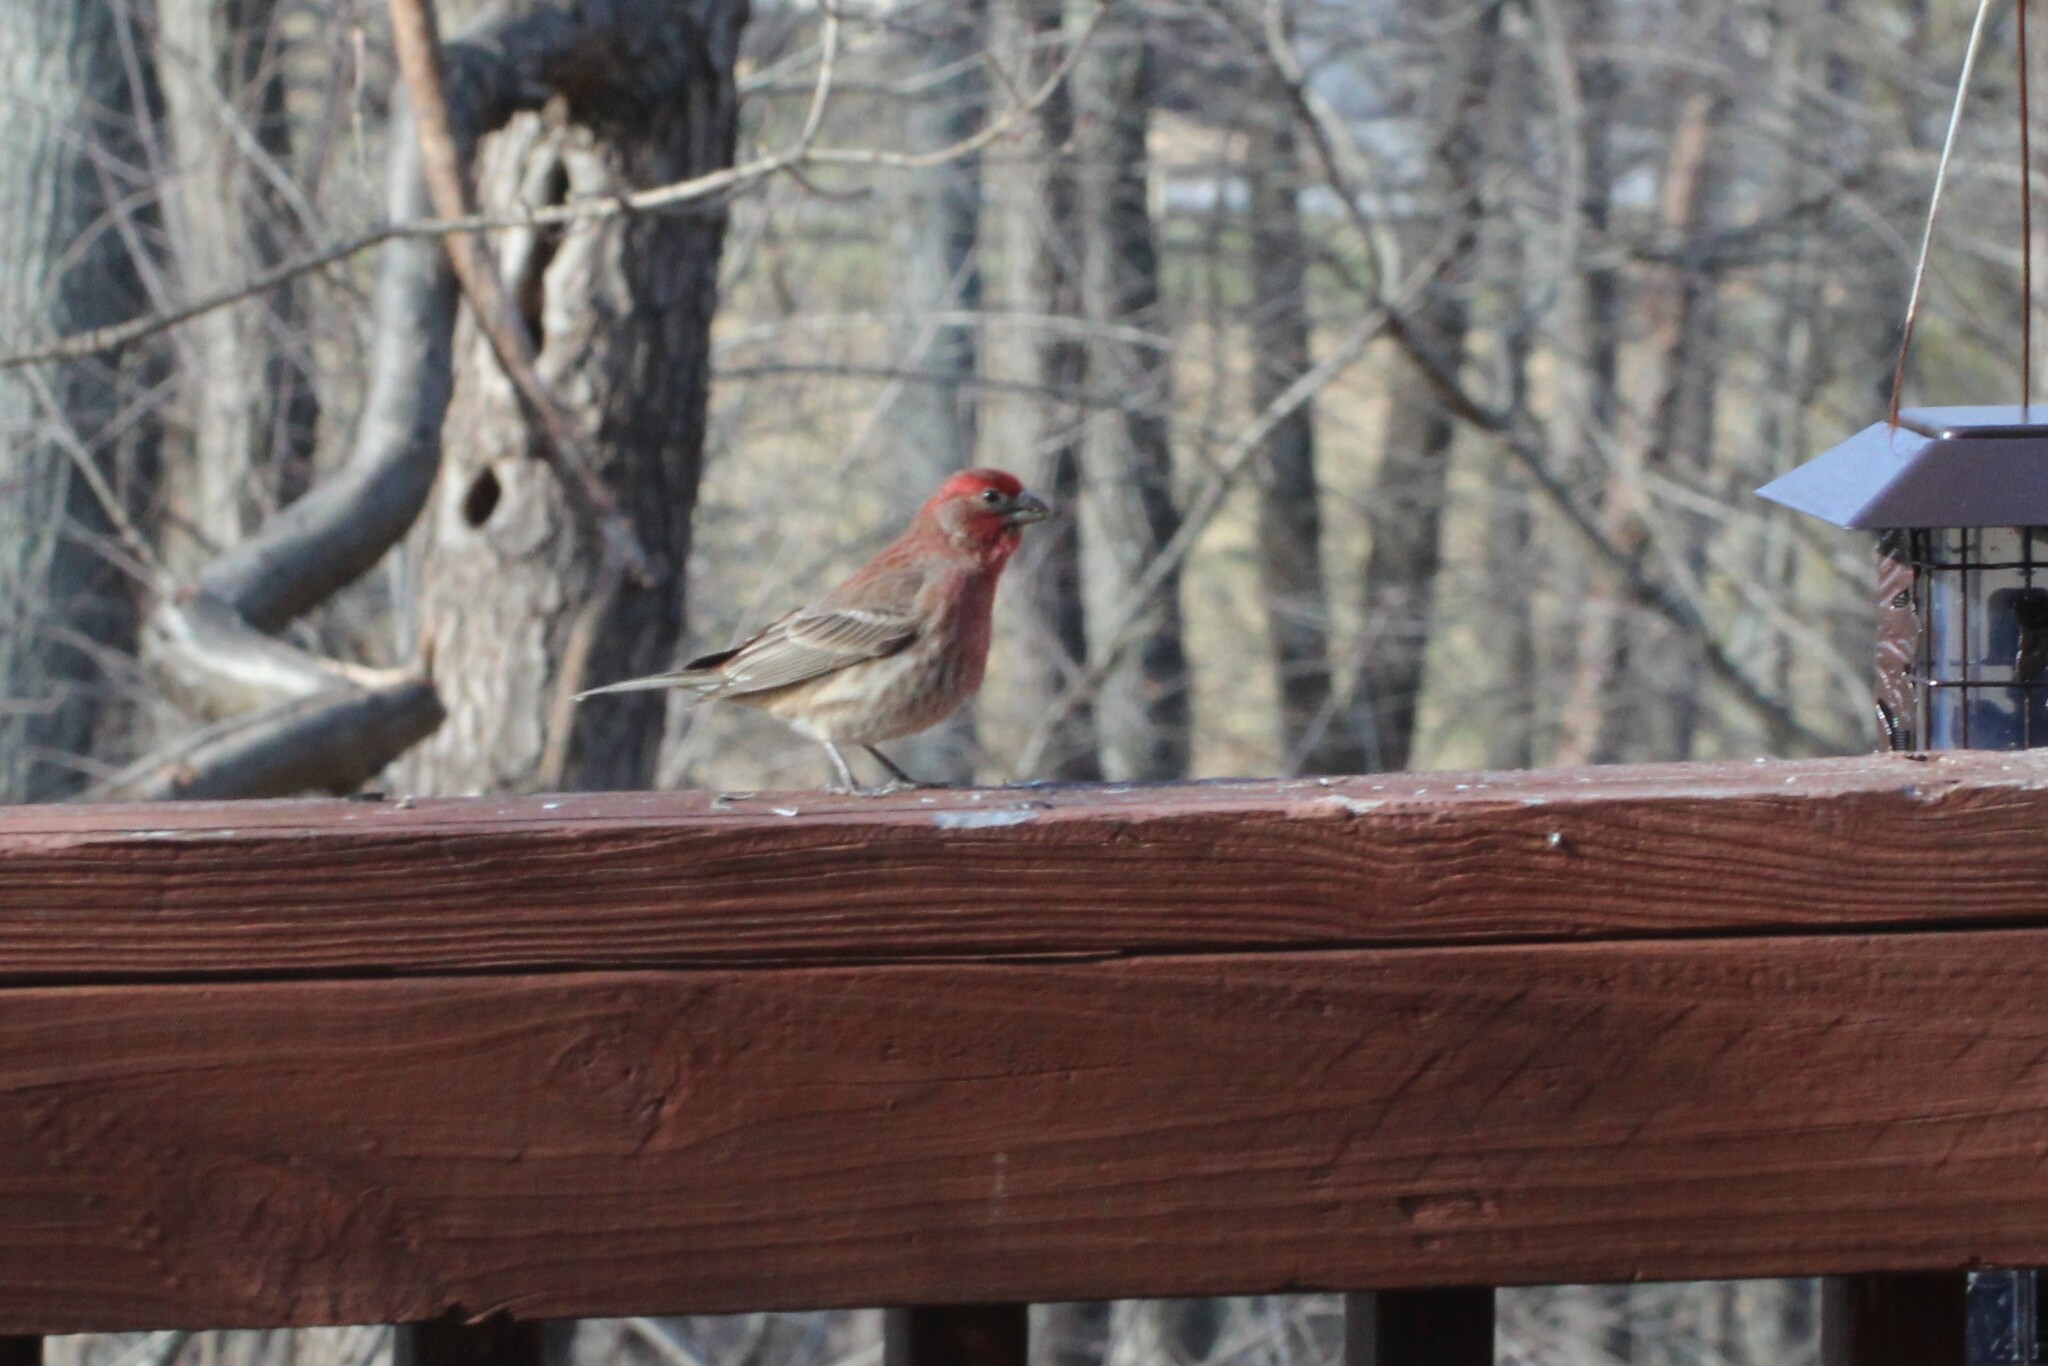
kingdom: Animalia
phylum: Chordata
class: Aves
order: Passeriformes
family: Fringillidae
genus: Haemorhous
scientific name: Haemorhous mexicanus
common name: House finch
